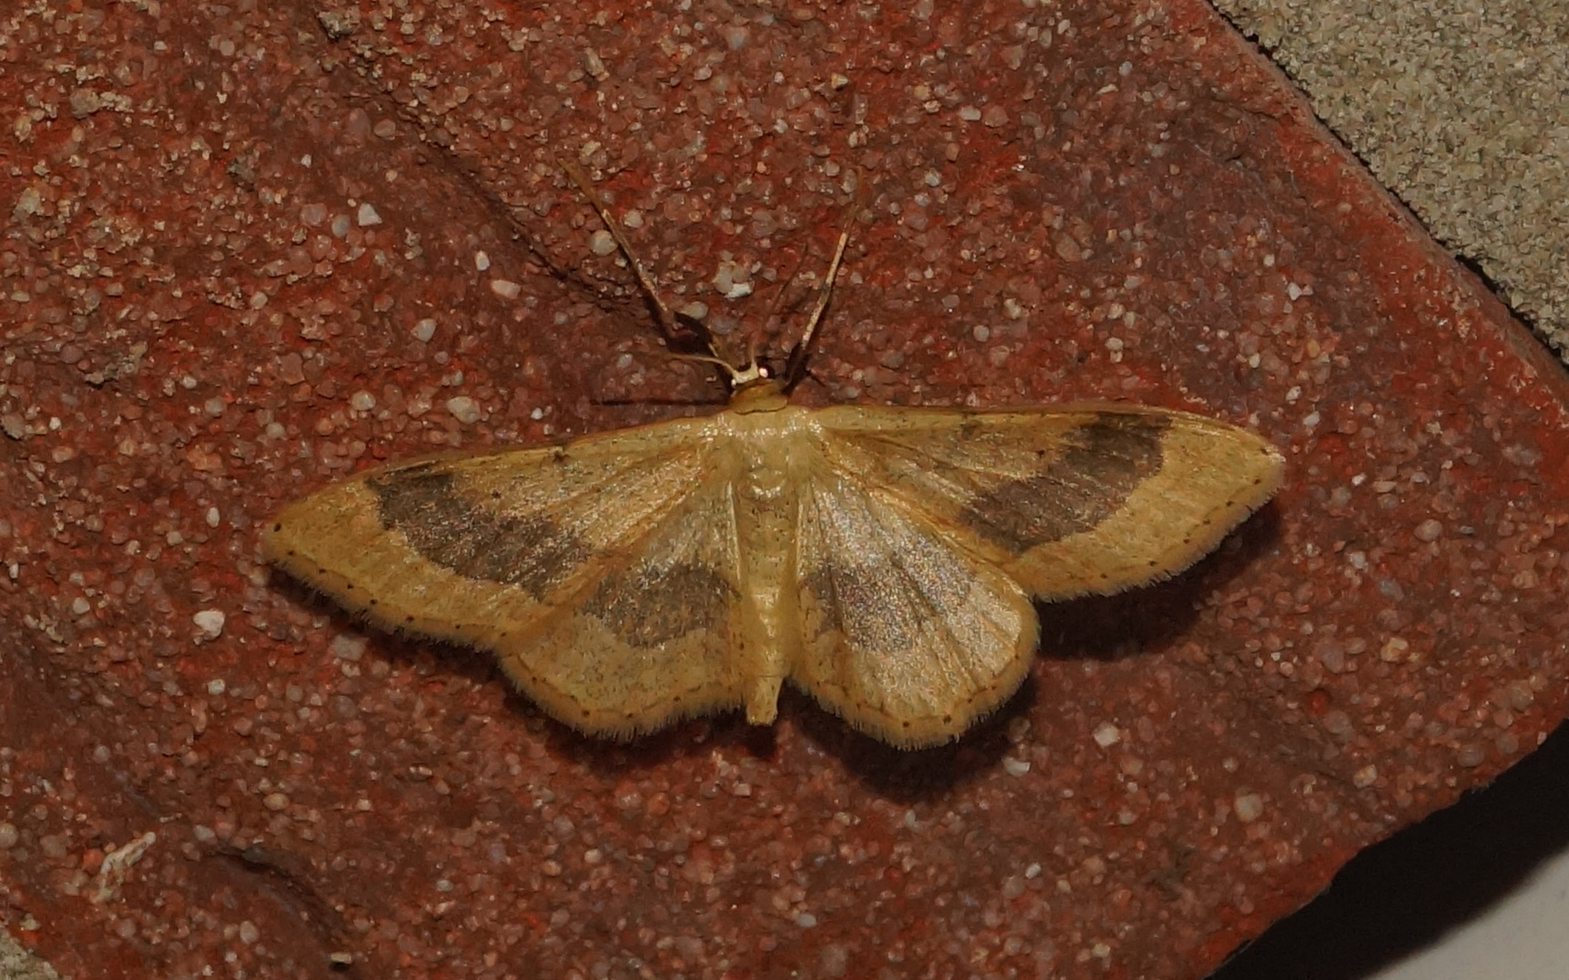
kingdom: Animalia
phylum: Arthropoda
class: Insecta
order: Lepidoptera
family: Geometridae
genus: Idaea
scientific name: Idaea aversata
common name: Riband wave
